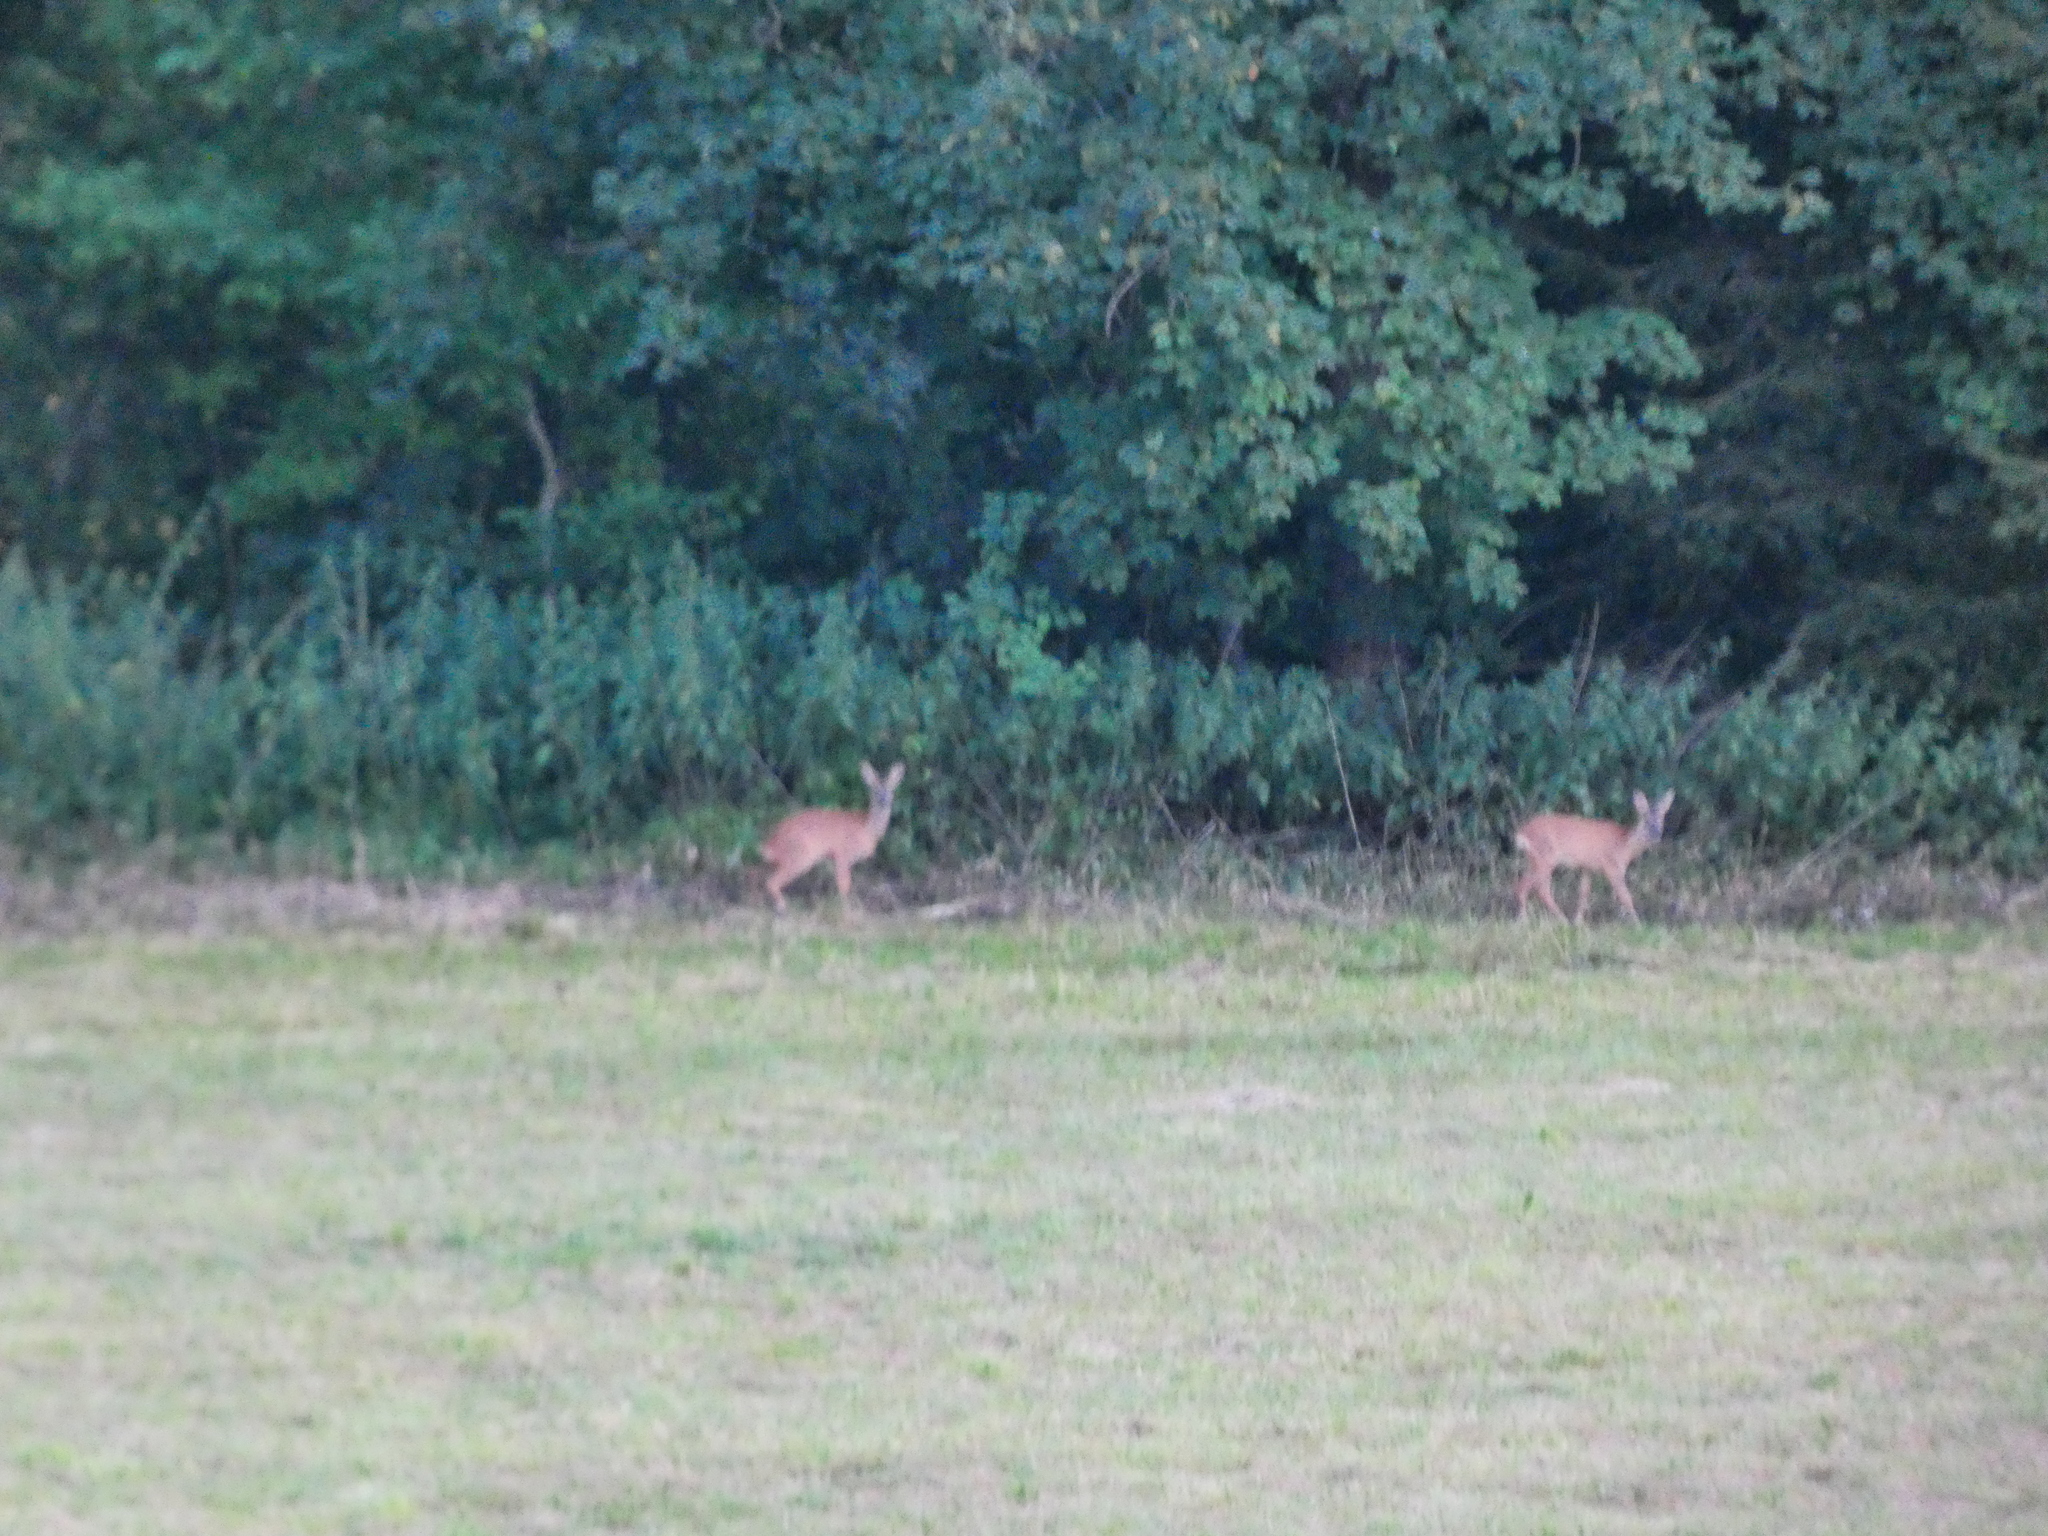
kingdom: Animalia
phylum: Chordata
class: Mammalia
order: Artiodactyla
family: Cervidae
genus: Capreolus
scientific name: Capreolus capreolus
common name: Western roe deer
